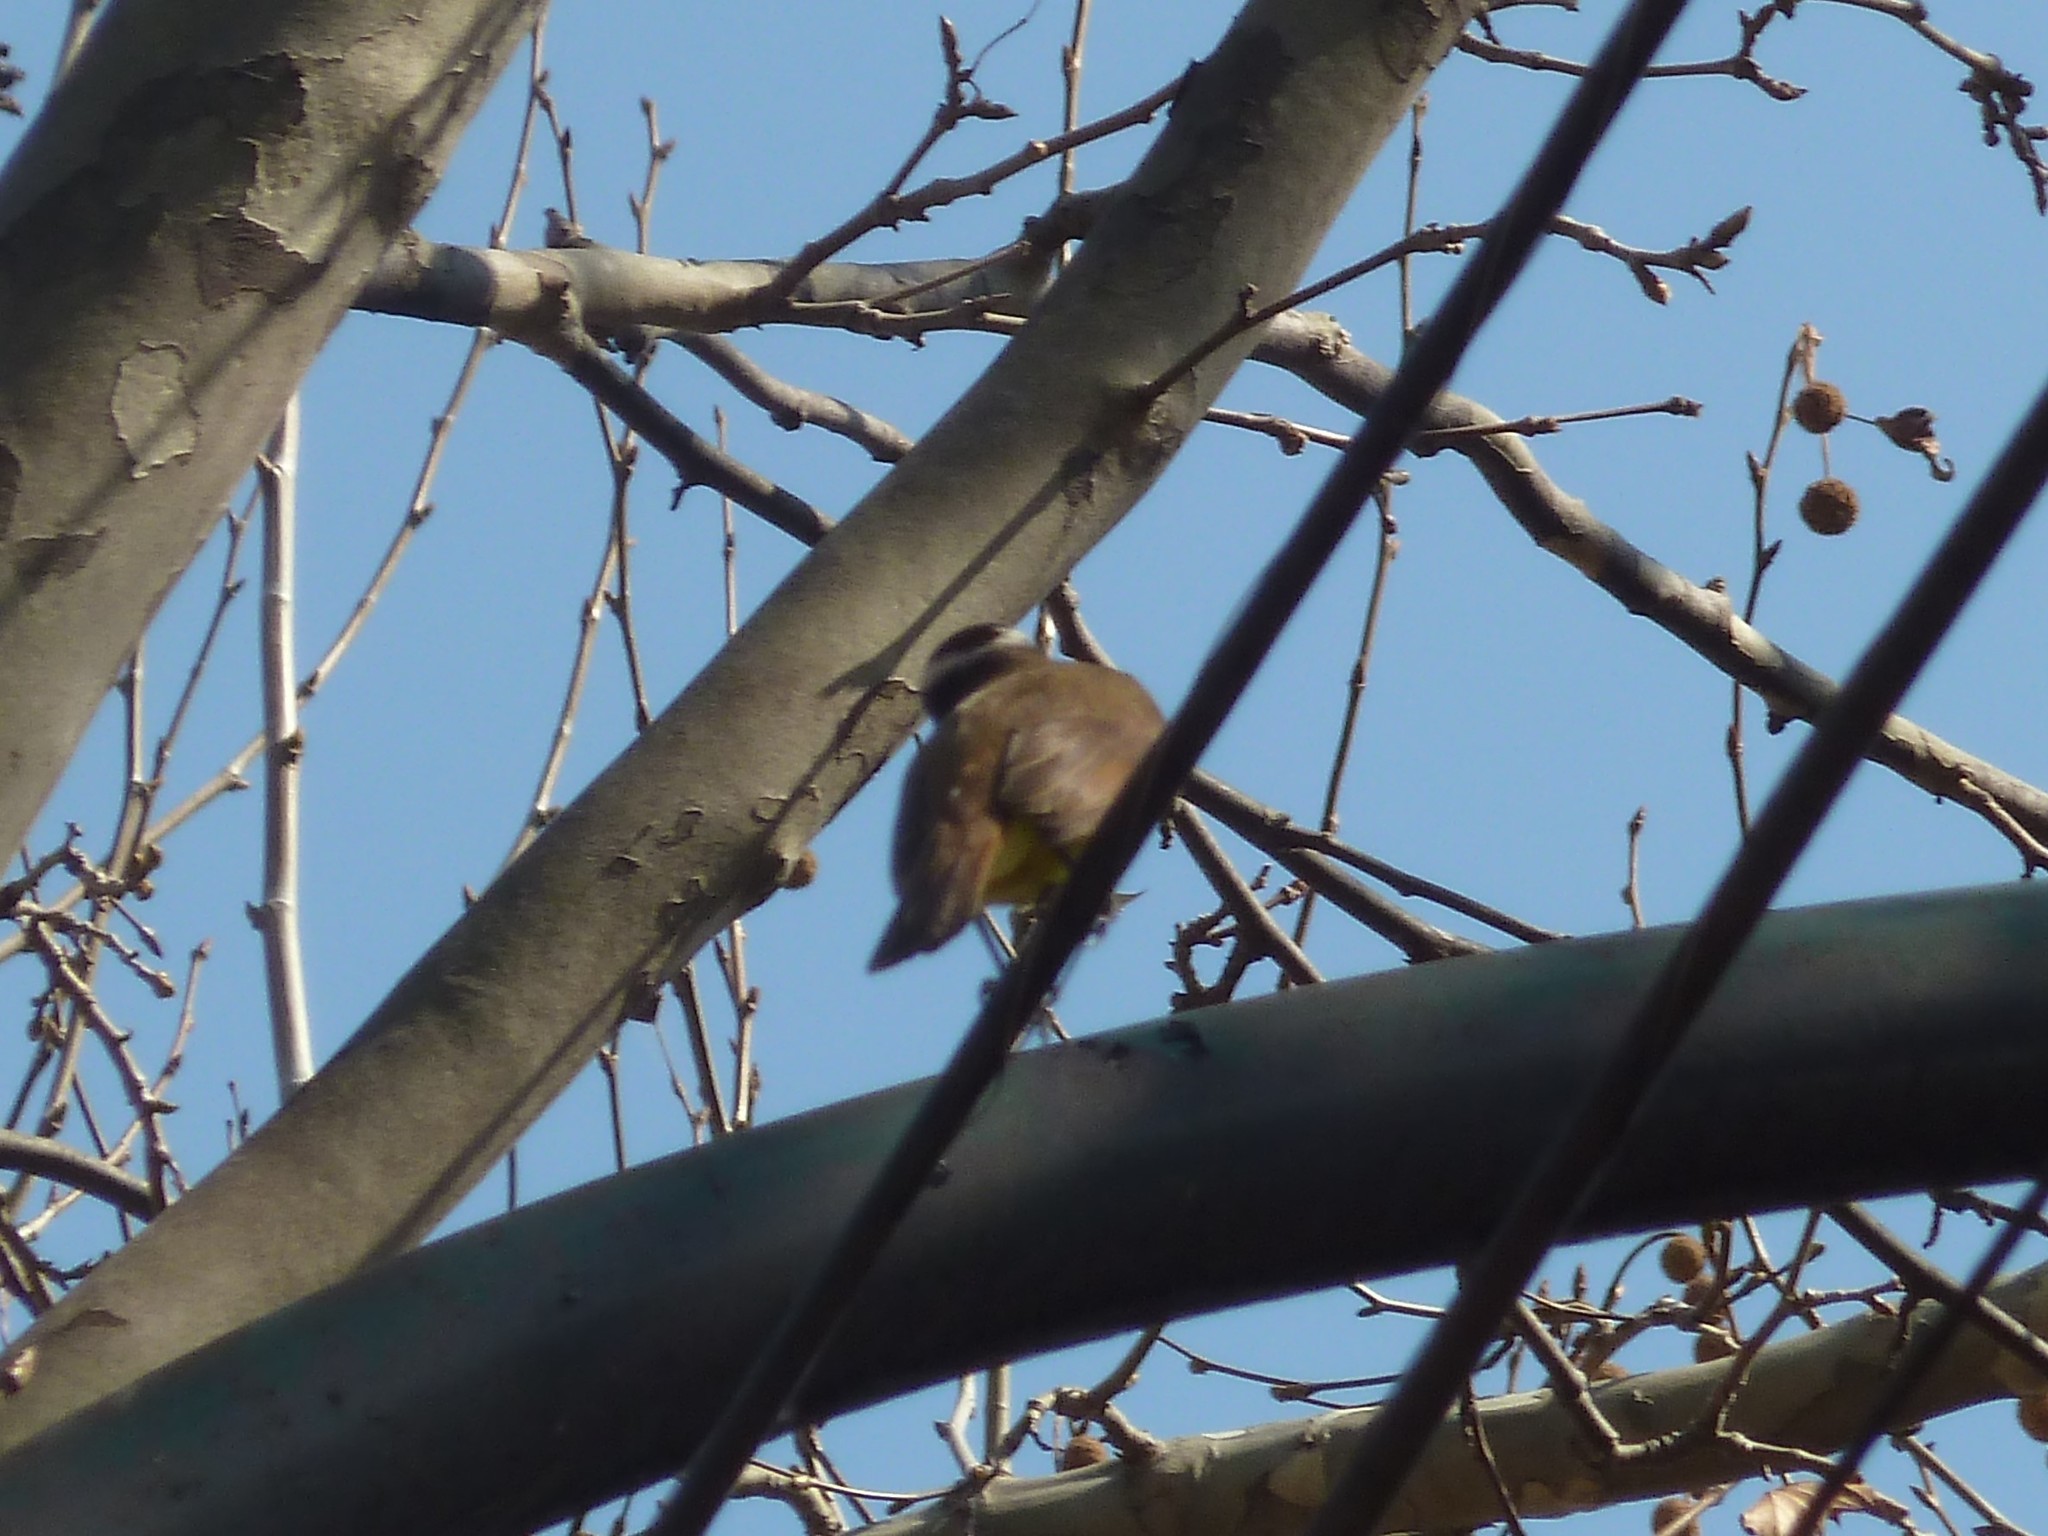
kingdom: Animalia
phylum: Chordata
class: Aves
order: Passeriformes
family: Tyrannidae
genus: Pitangus
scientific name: Pitangus sulphuratus
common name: Great kiskadee
